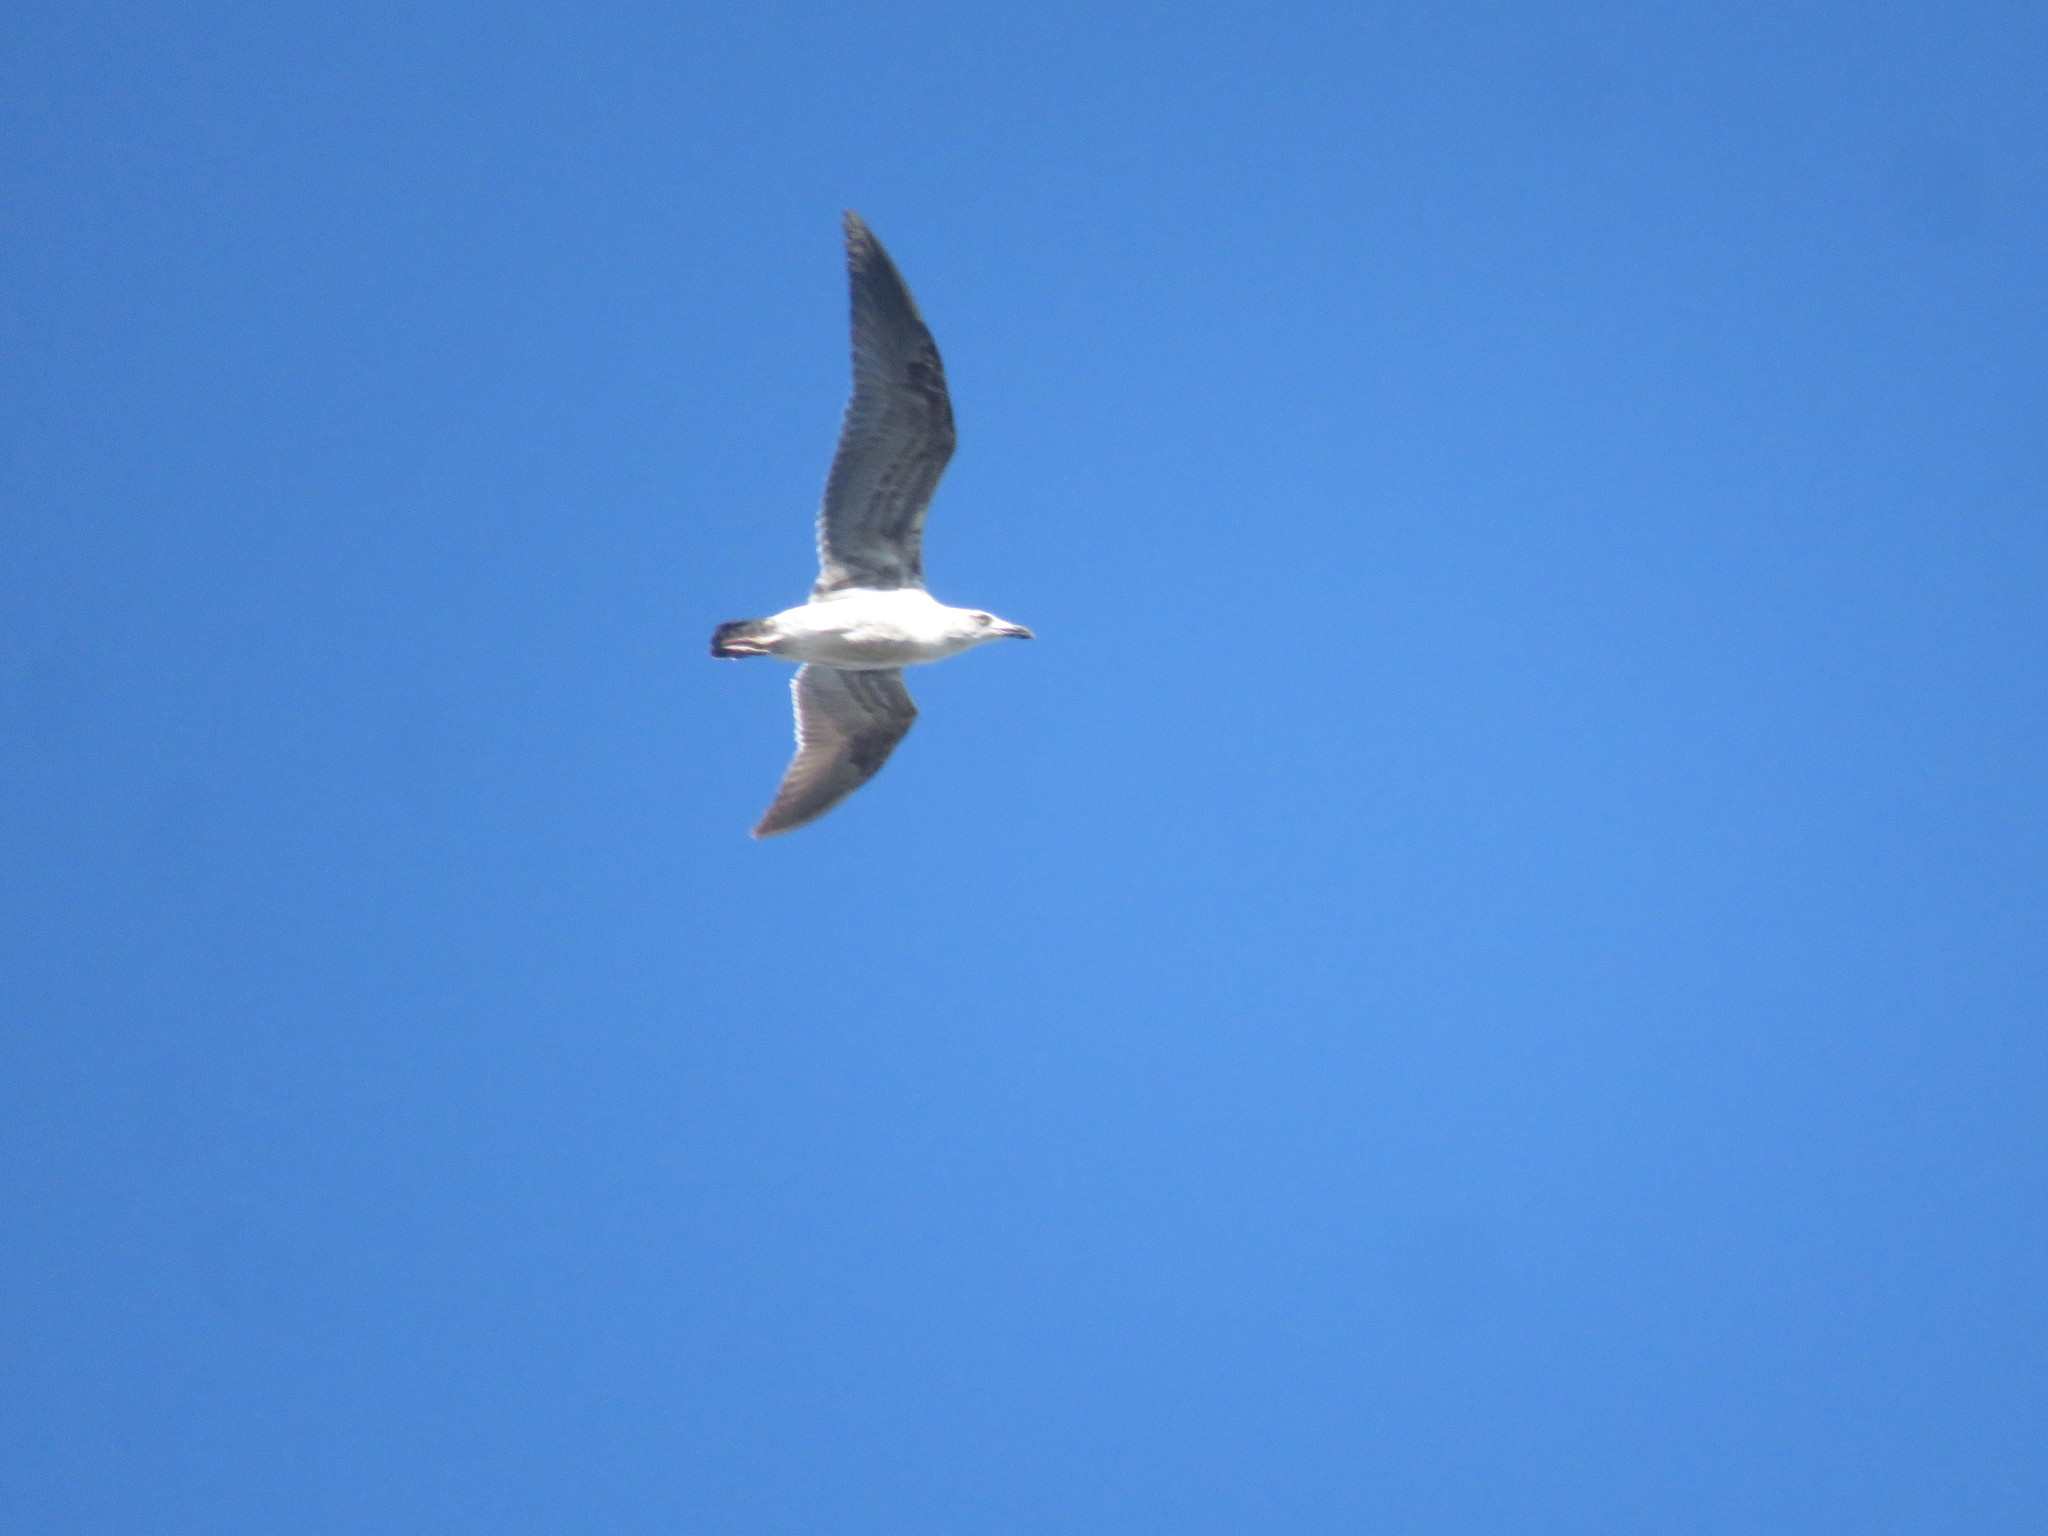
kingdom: Animalia
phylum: Chordata
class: Aves
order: Charadriiformes
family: Laridae
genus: Larus
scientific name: Larus dominicanus
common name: Kelp gull
